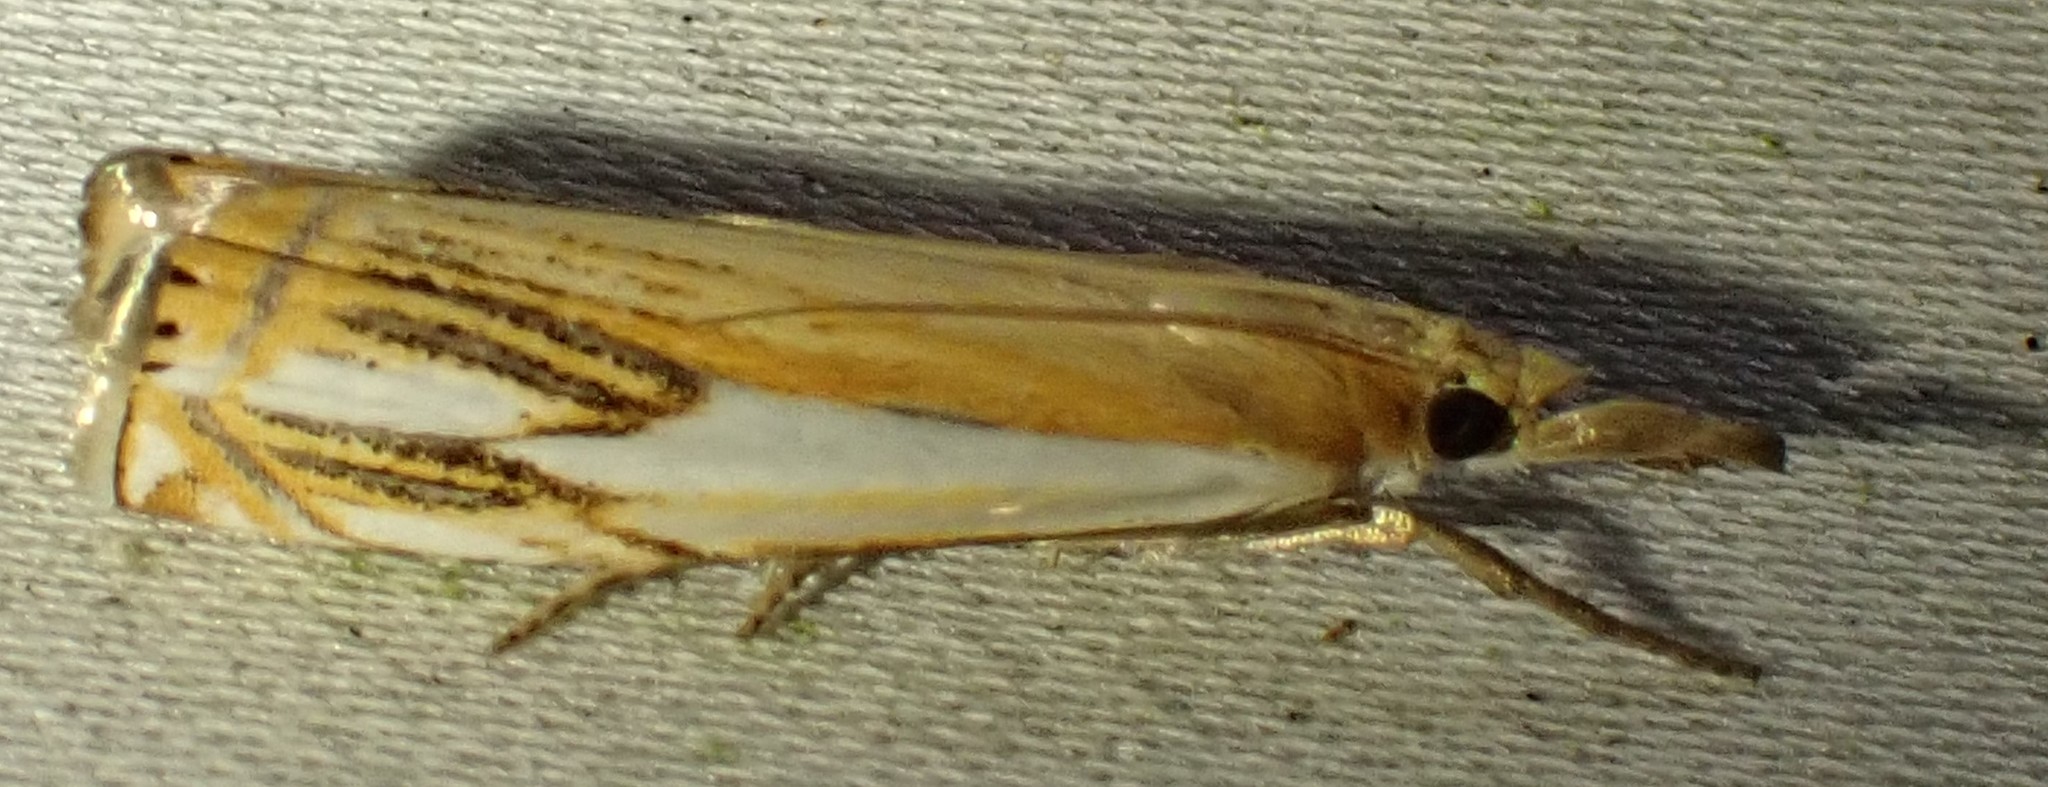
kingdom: Animalia
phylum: Arthropoda
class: Insecta
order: Lepidoptera
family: Crambidae
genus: Crambus
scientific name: Crambus agitatellus
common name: Double-banded grass-veneer
